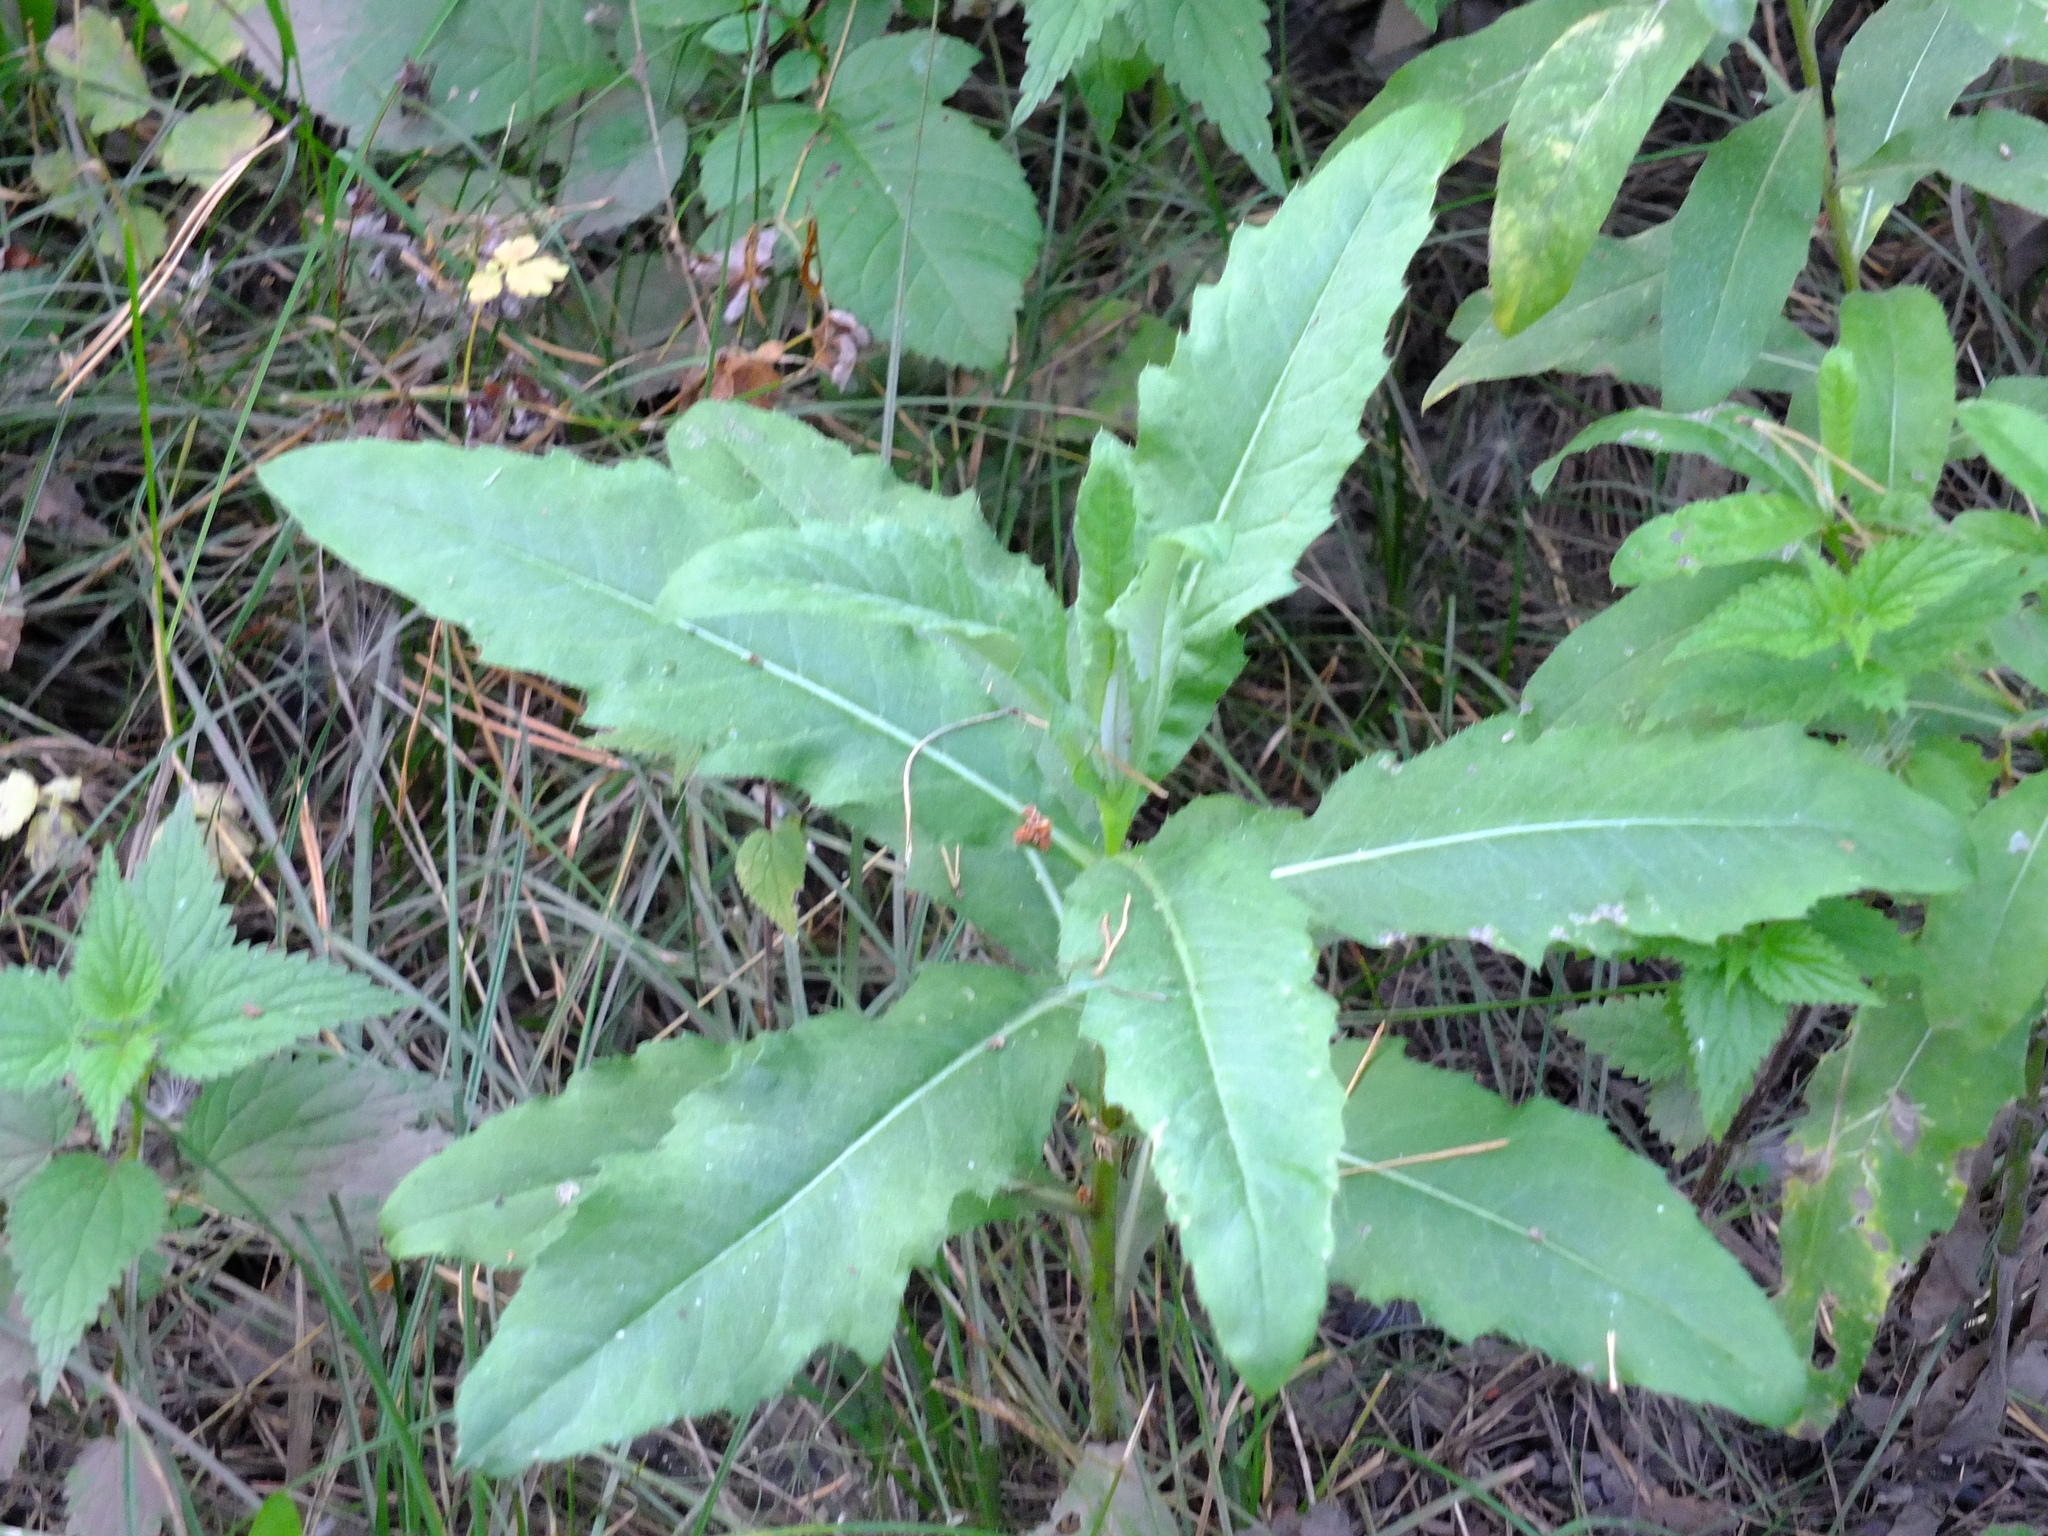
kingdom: Plantae
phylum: Tracheophyta
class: Magnoliopsida
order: Asterales
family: Asteraceae
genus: Cirsium
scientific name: Cirsium arvense
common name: Creeping thistle
